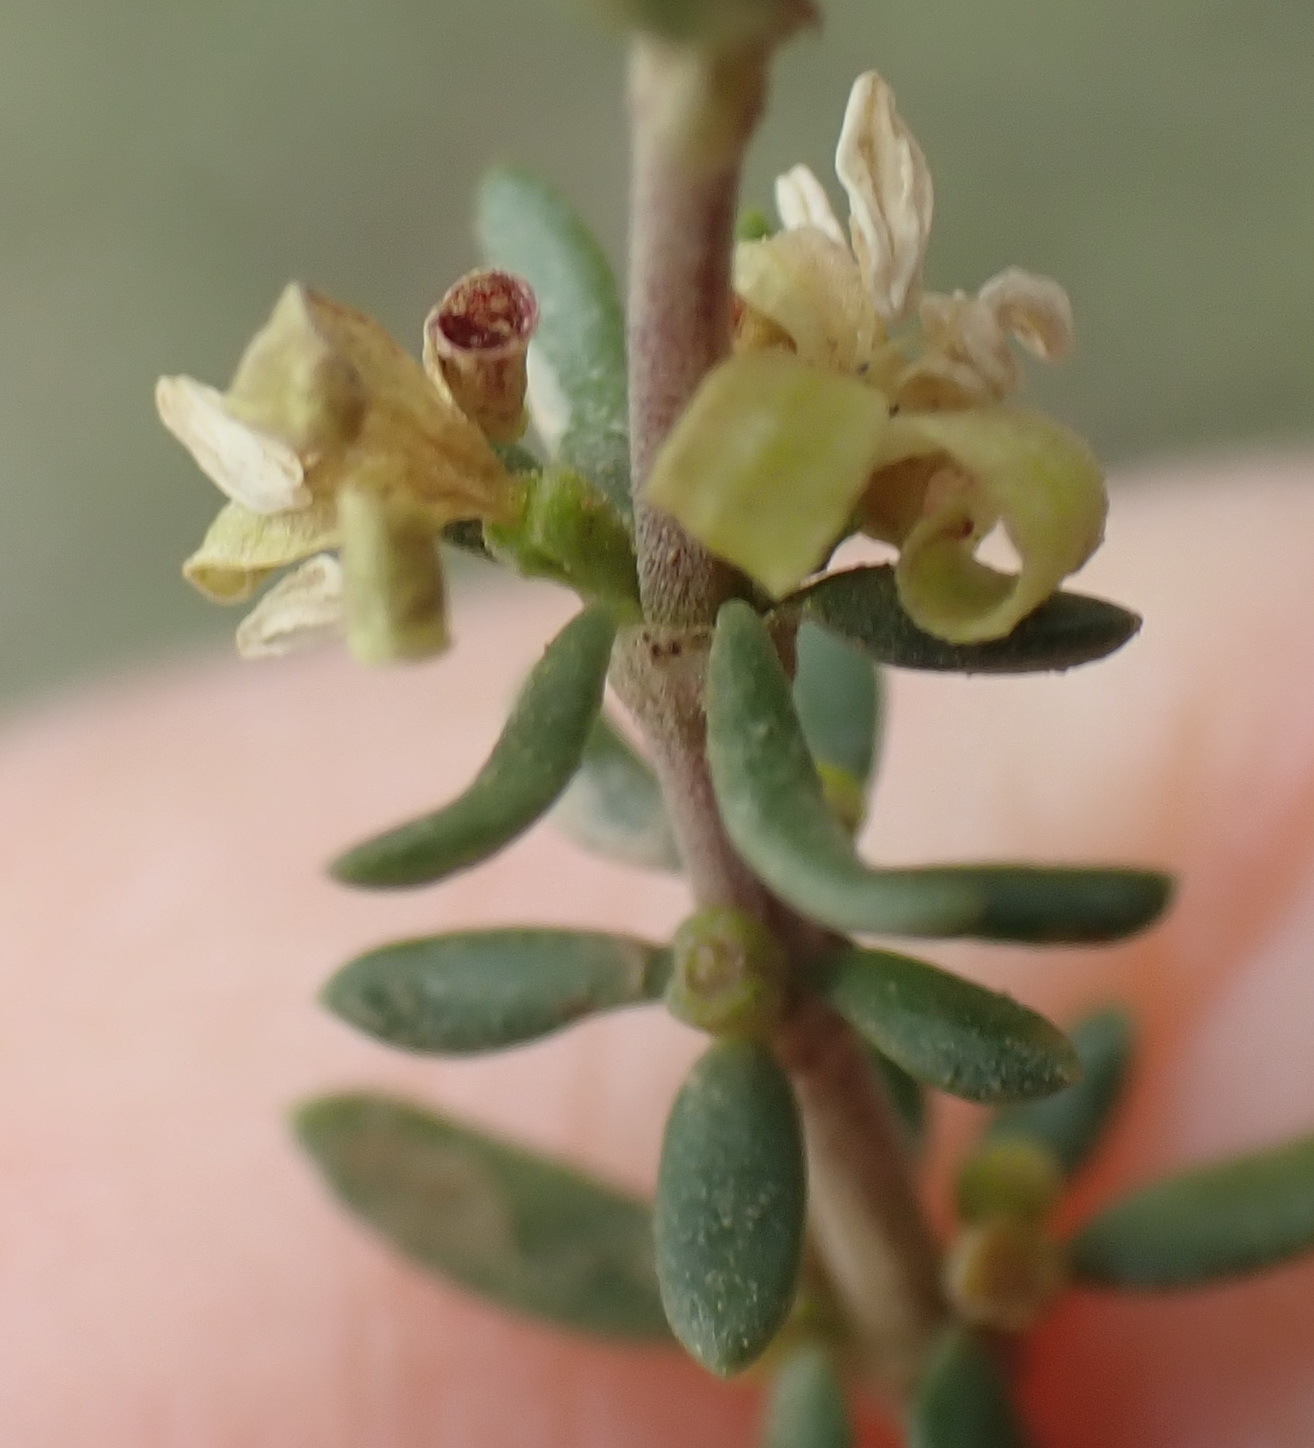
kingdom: Plantae
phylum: Tracheophyta
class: Magnoliopsida
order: Gentianales
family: Rubiaceae
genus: Anthospermum
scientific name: Anthospermum comptonii
